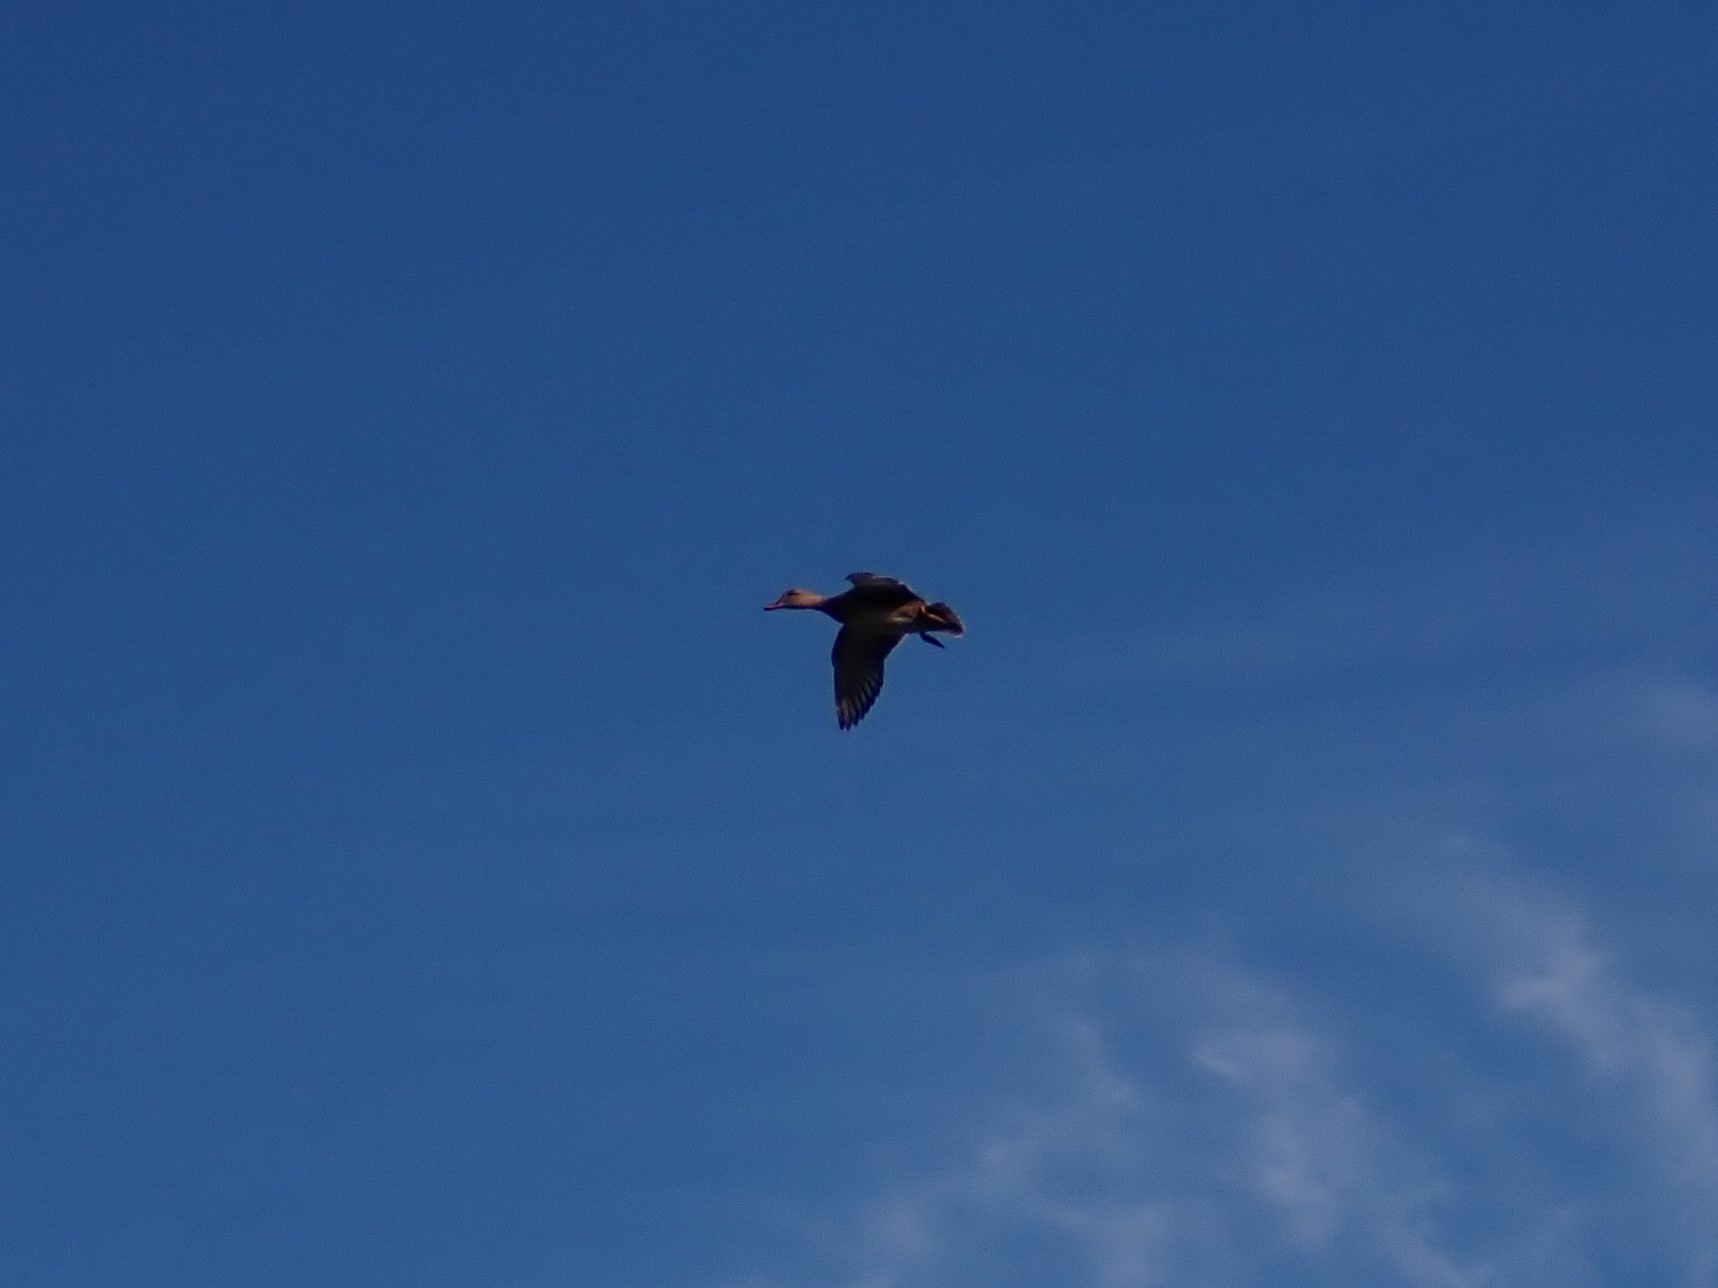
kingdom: Animalia
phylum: Chordata
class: Aves
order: Anseriformes
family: Anatidae
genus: Mareca
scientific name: Mareca strepera
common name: Gadwall
